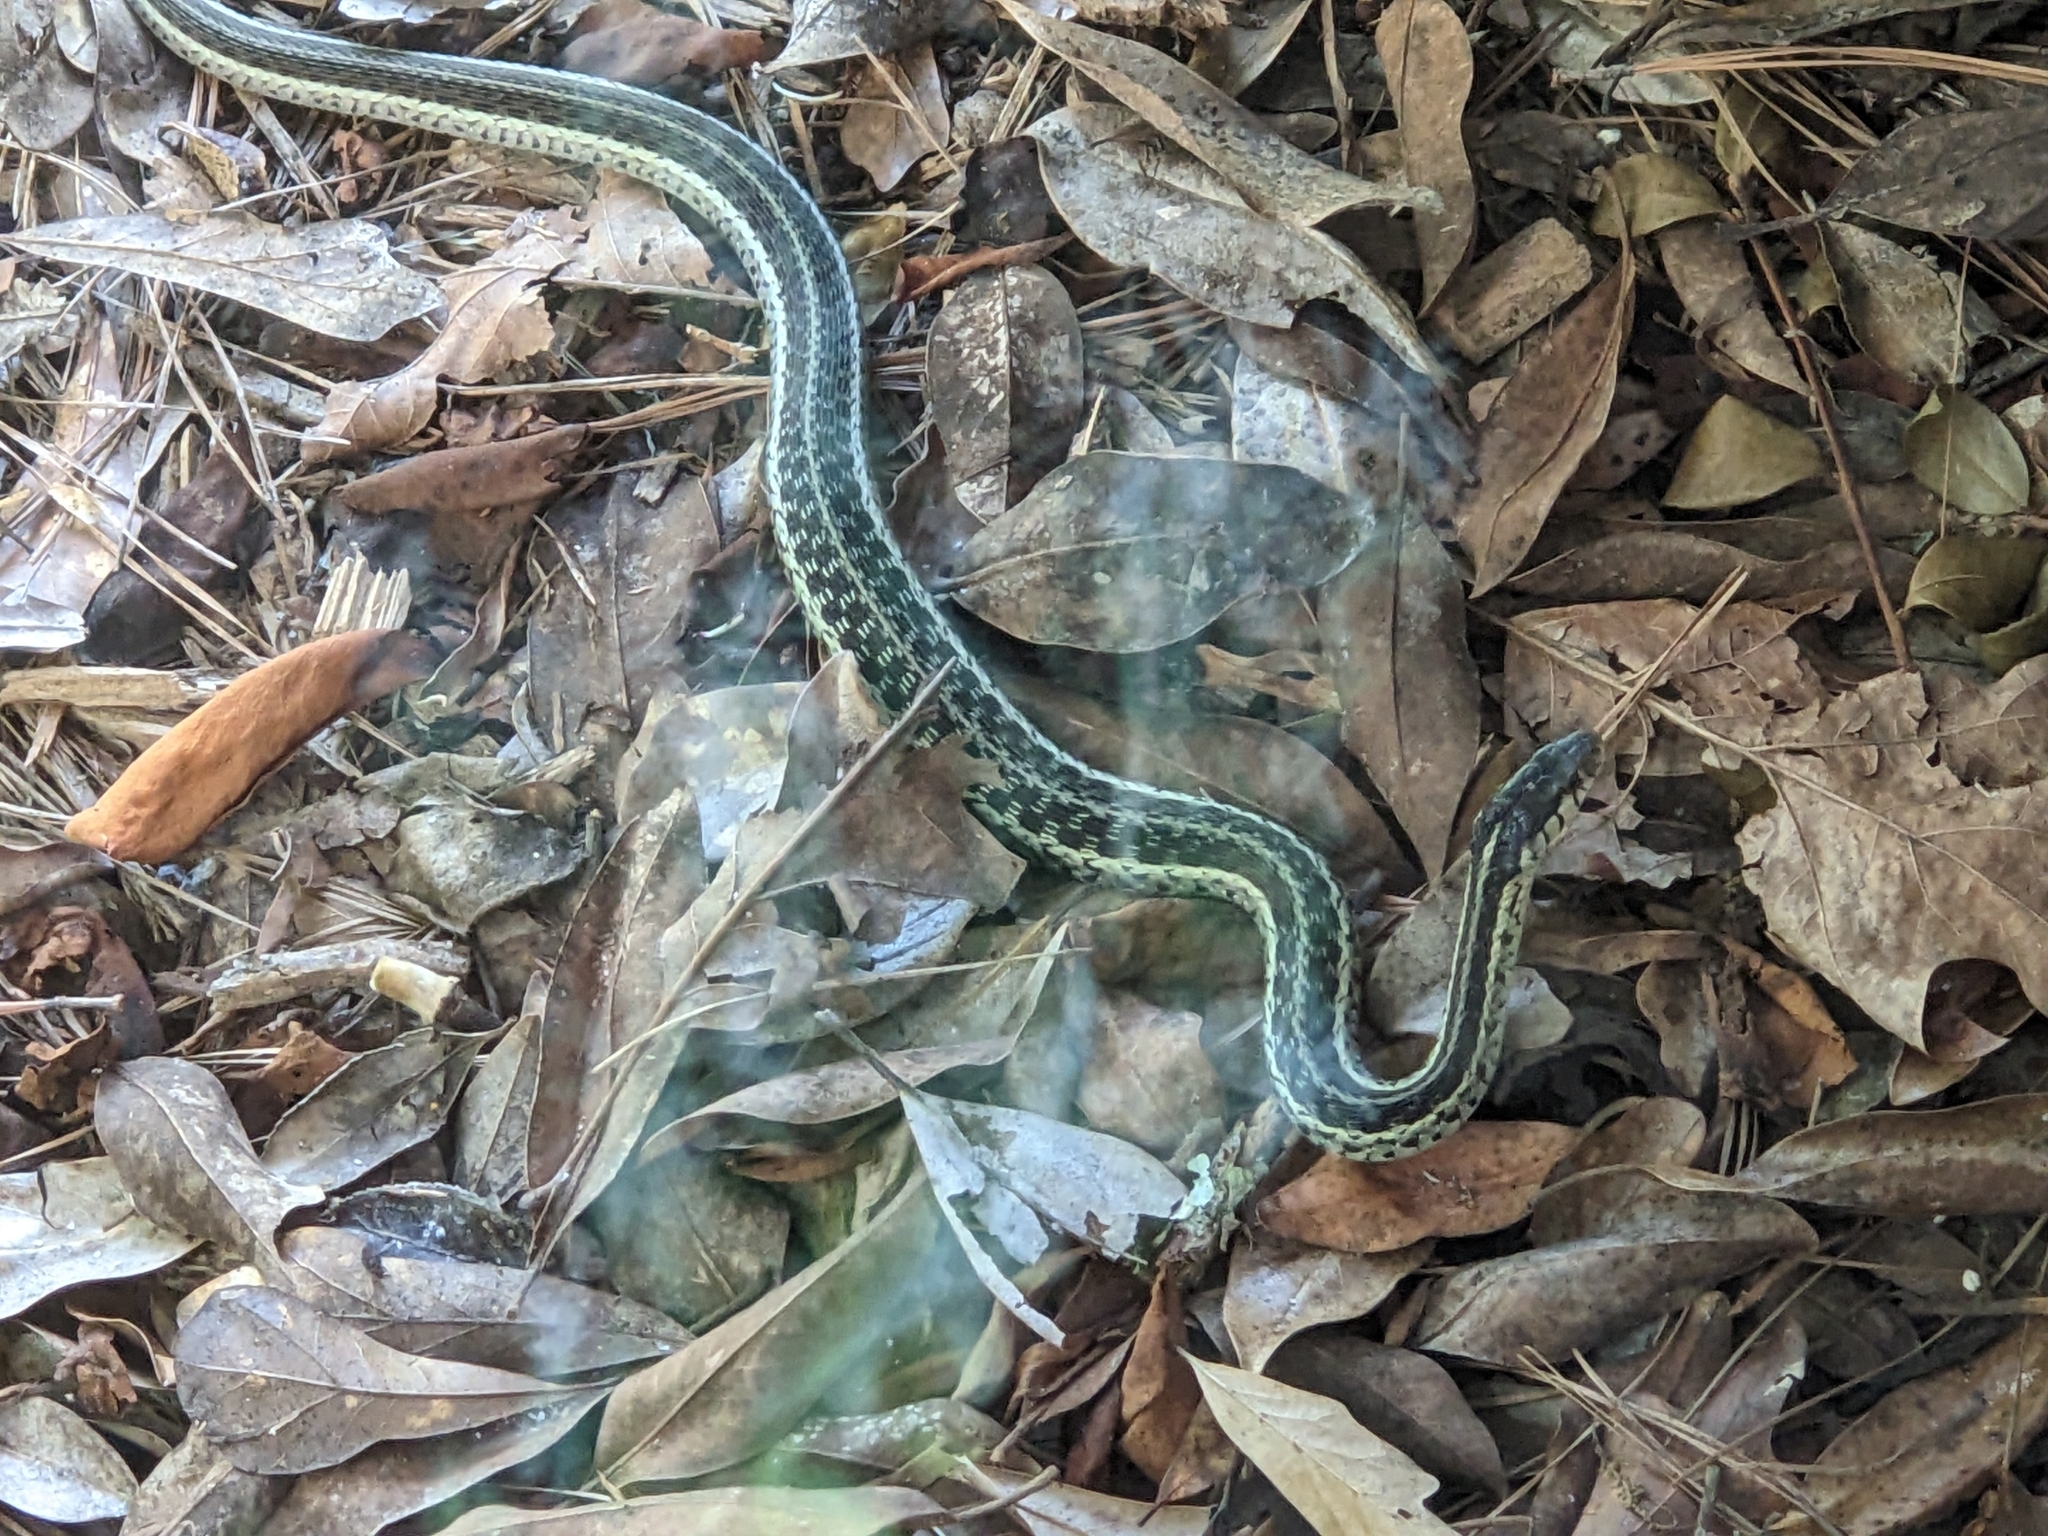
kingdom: Animalia
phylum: Chordata
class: Squamata
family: Colubridae
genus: Thamnophis
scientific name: Thamnophis sirtalis
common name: Common garter snake
